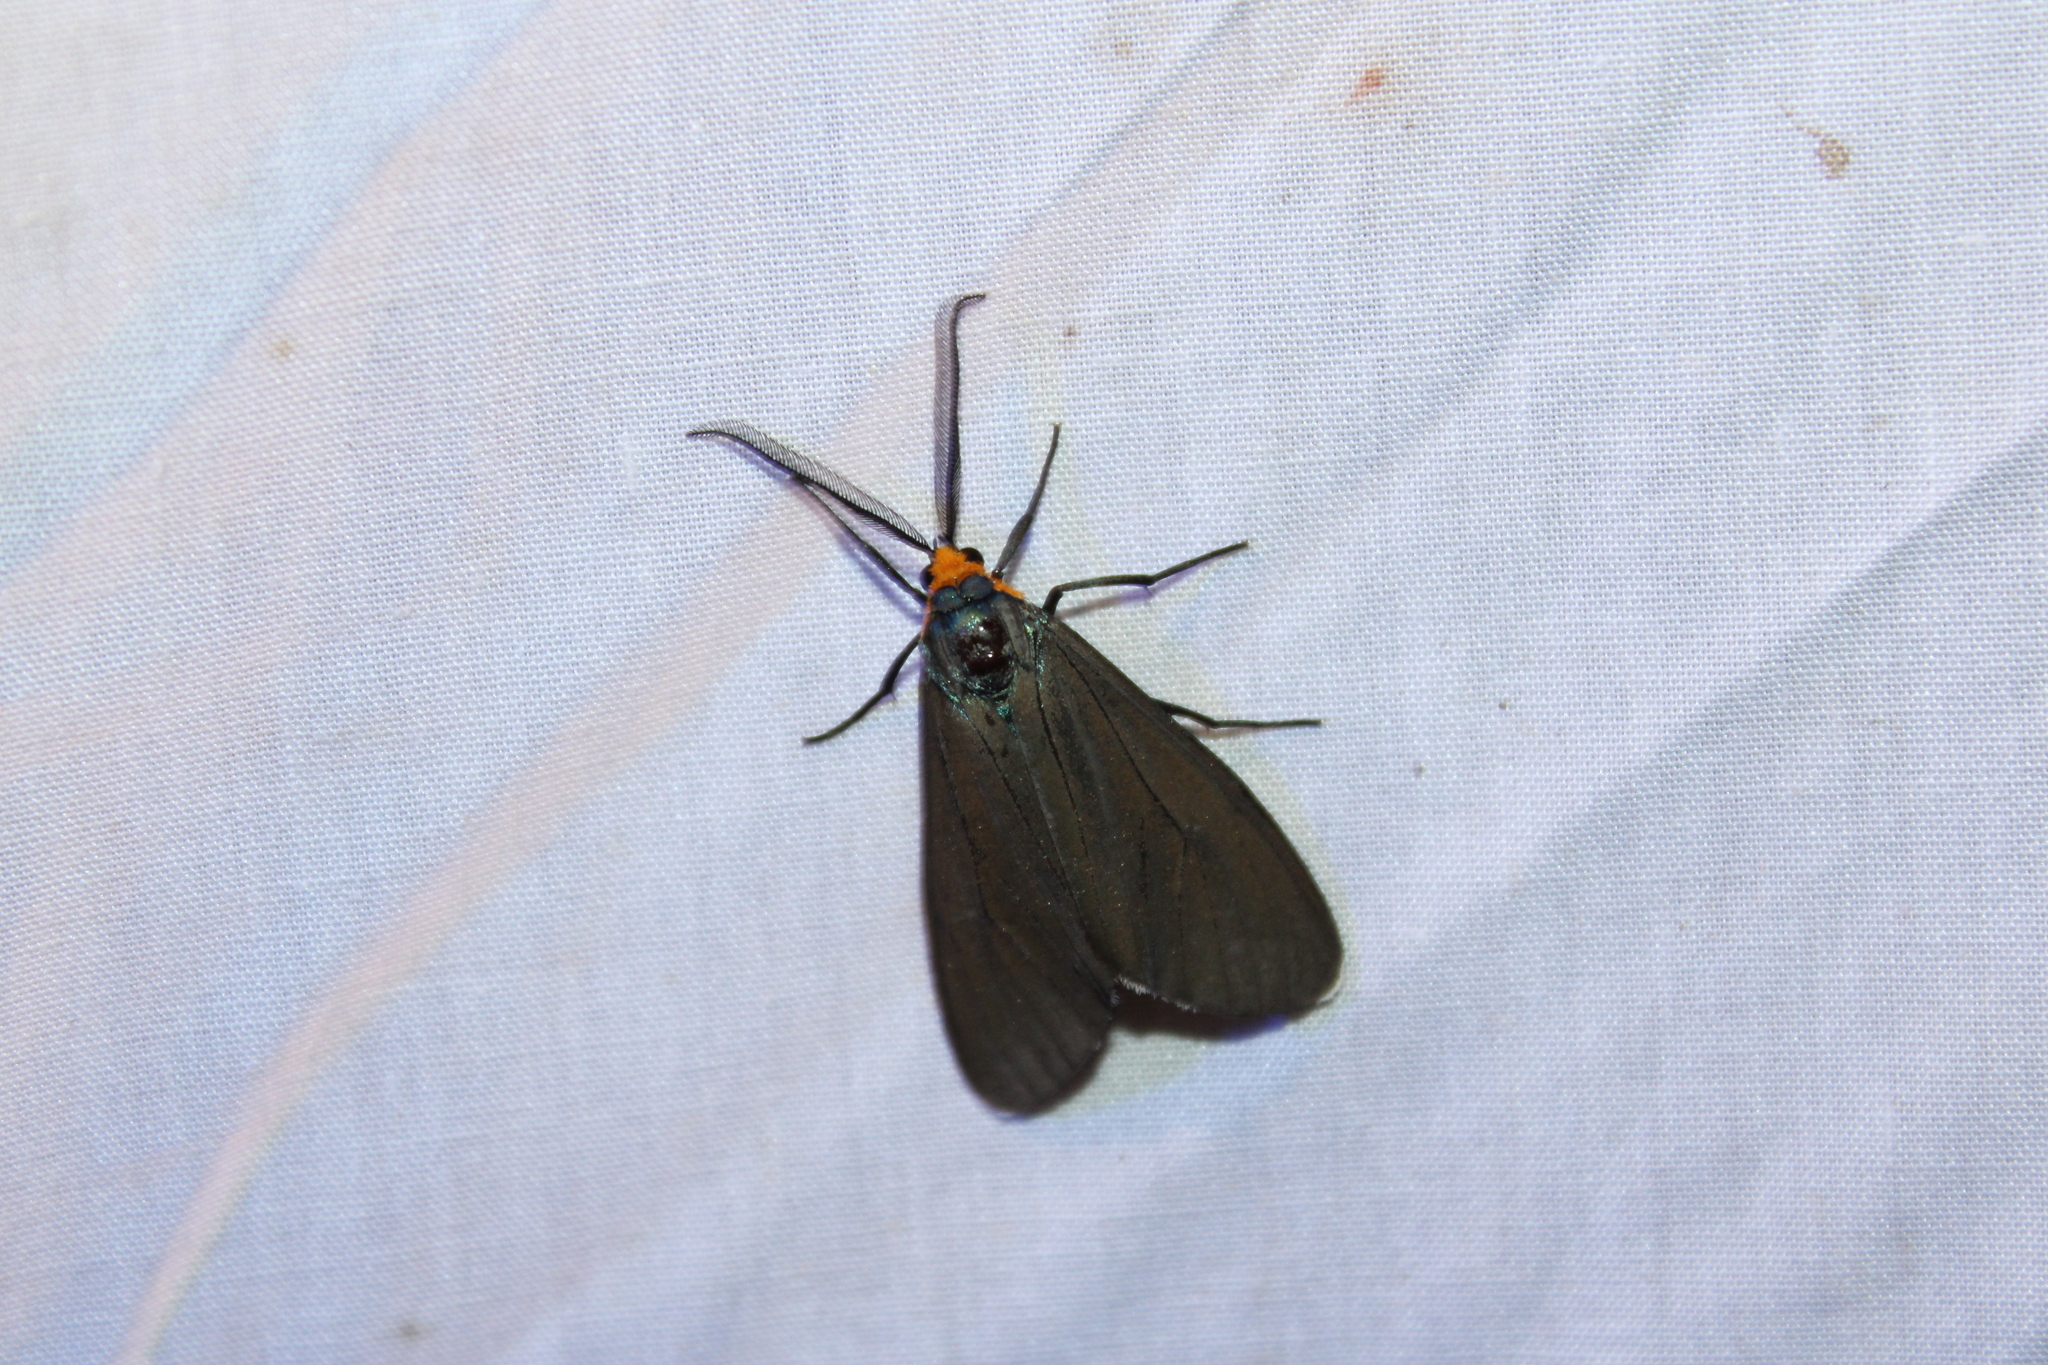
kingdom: Animalia
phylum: Arthropoda
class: Insecta
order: Lepidoptera
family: Erebidae
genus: Ctenucha
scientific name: Ctenucha virginica
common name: Virginia ctenucha moth
